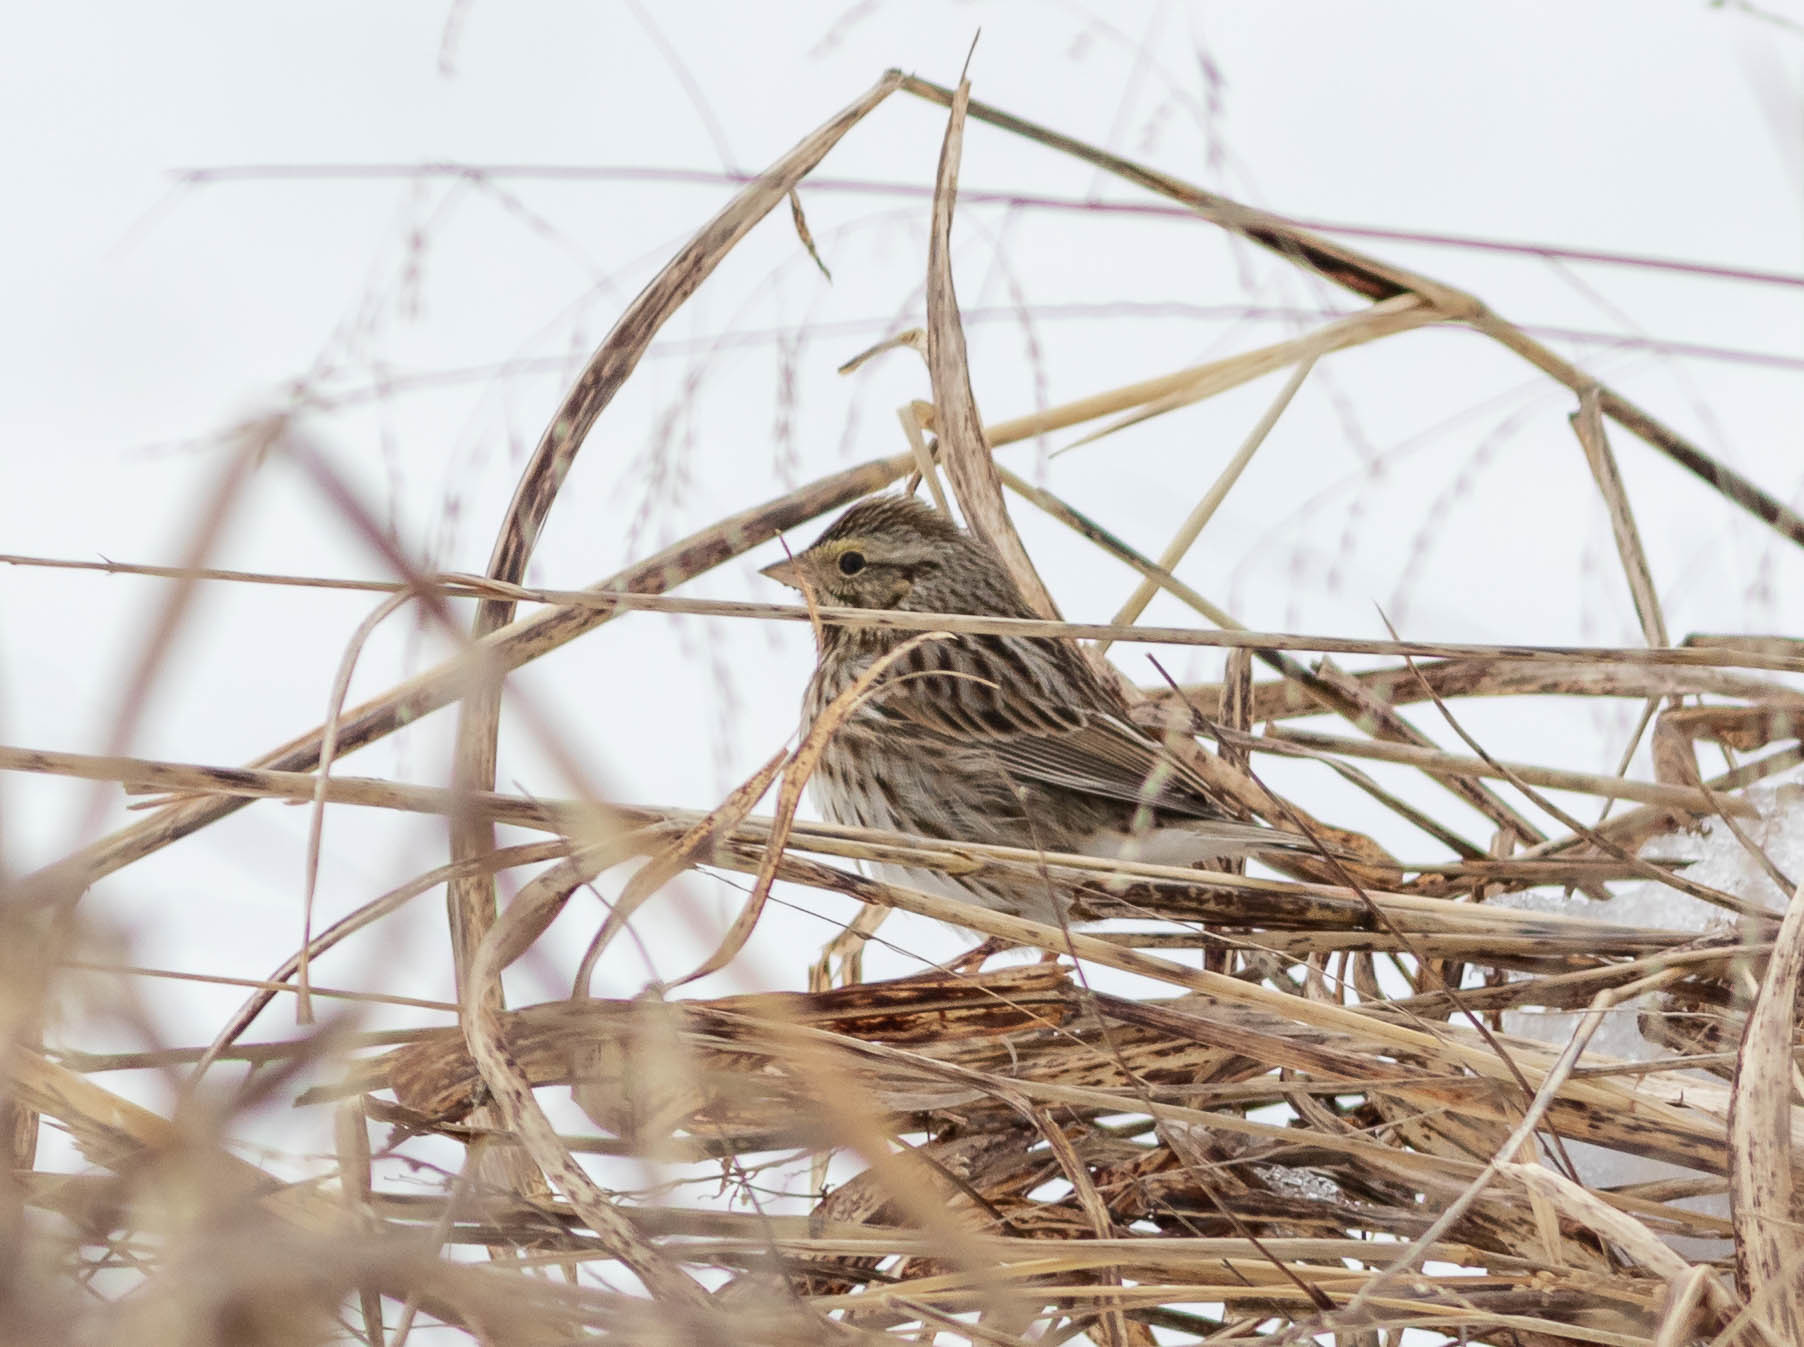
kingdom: Animalia
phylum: Chordata
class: Aves
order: Passeriformes
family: Passerellidae
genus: Passerculus
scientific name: Passerculus sandwichensis
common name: Savannah sparrow
